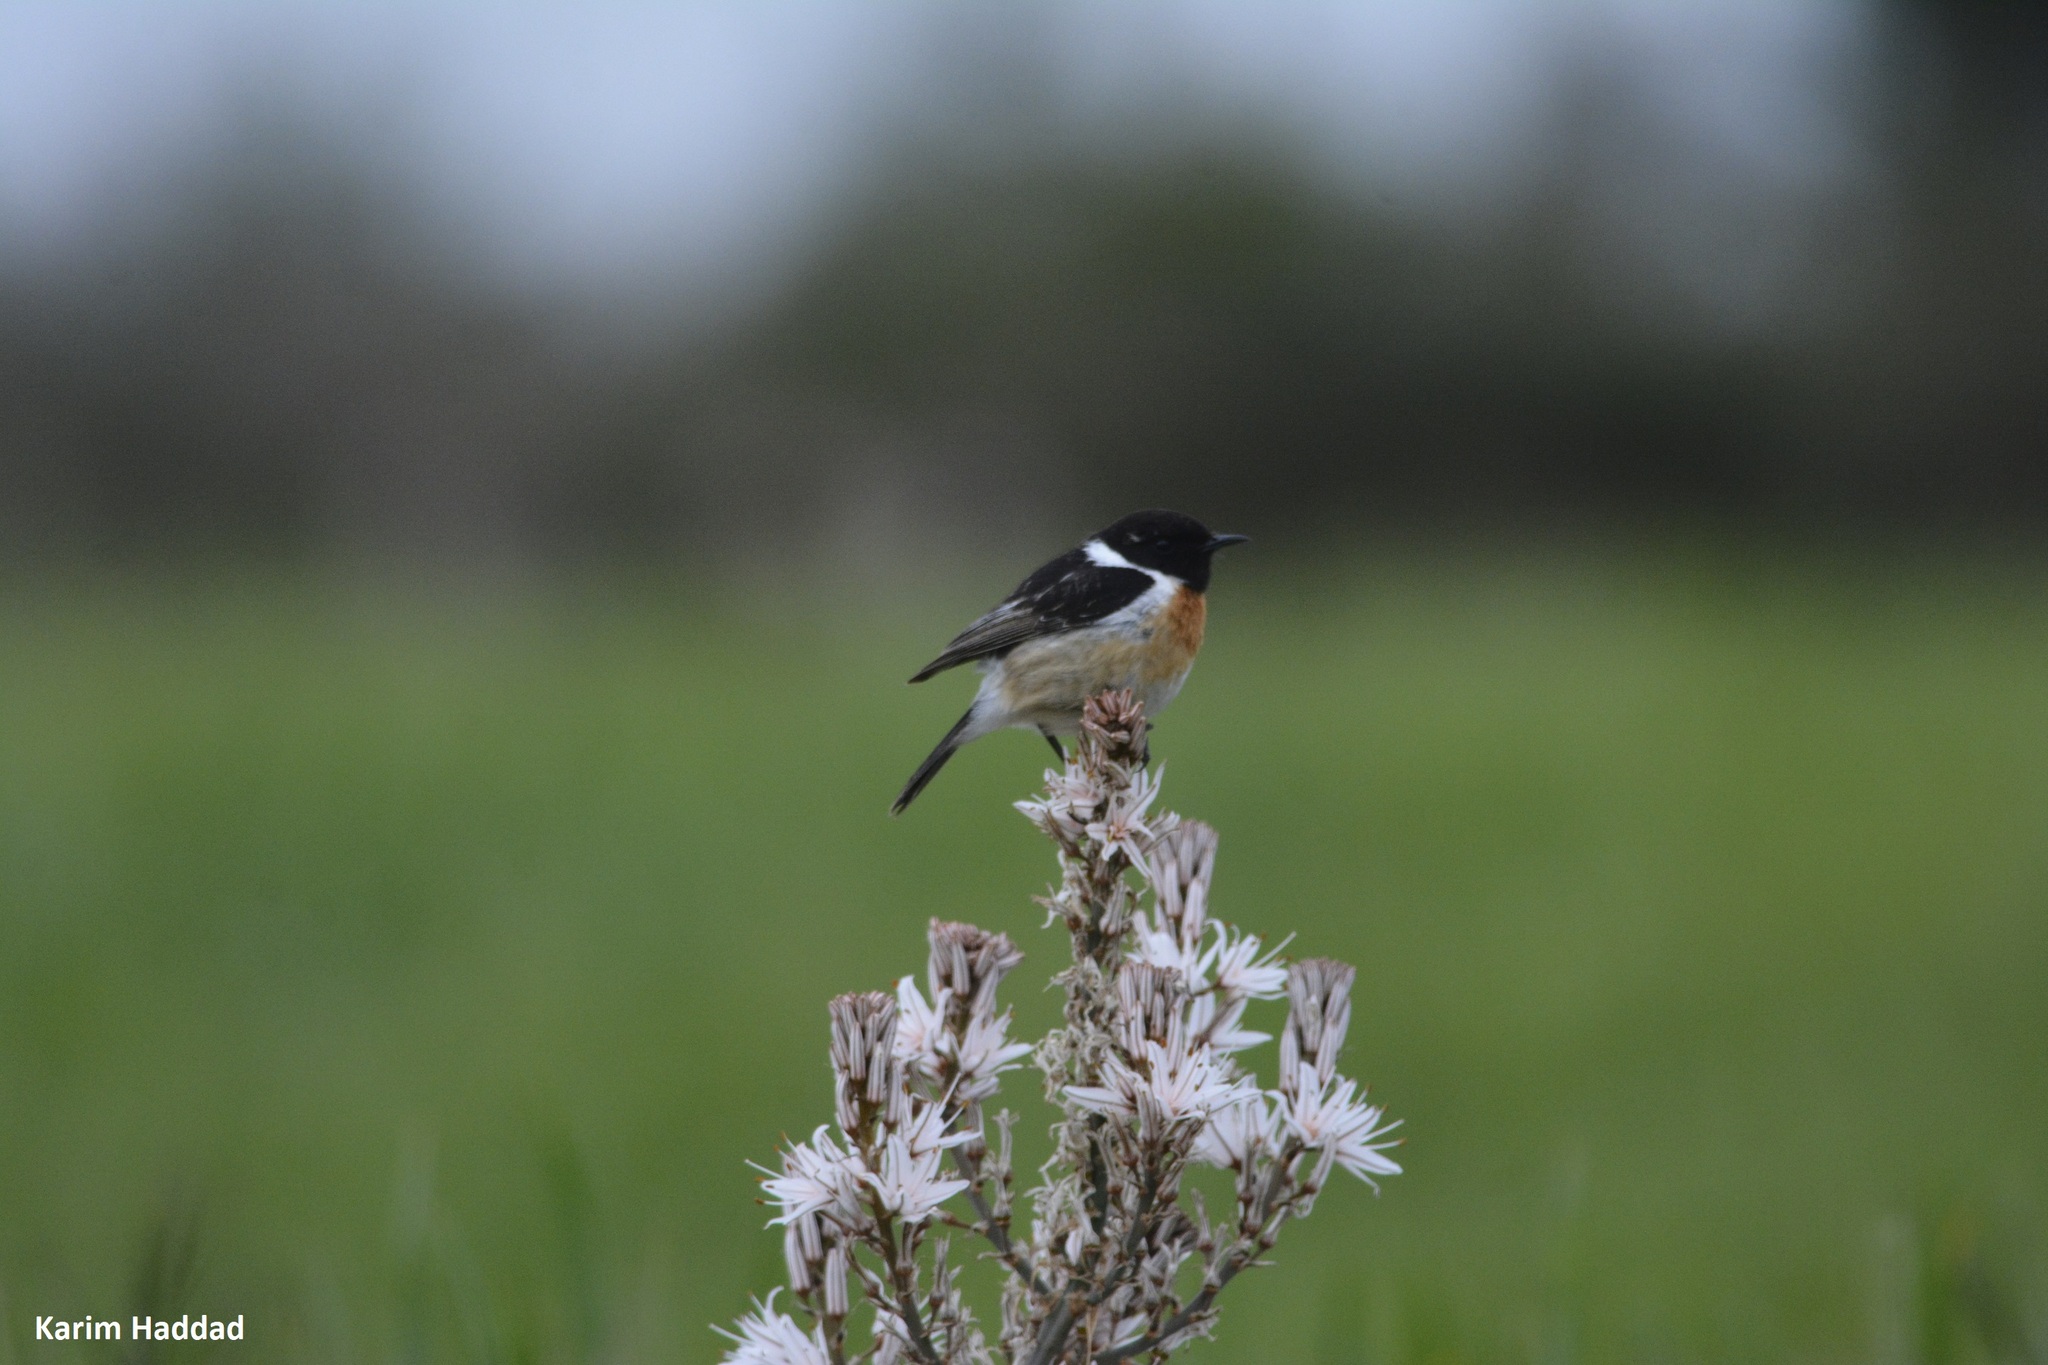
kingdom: Animalia
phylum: Chordata
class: Aves
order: Passeriformes
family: Muscicapidae
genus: Saxicola
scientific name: Saxicola rubicola
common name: European stonechat
